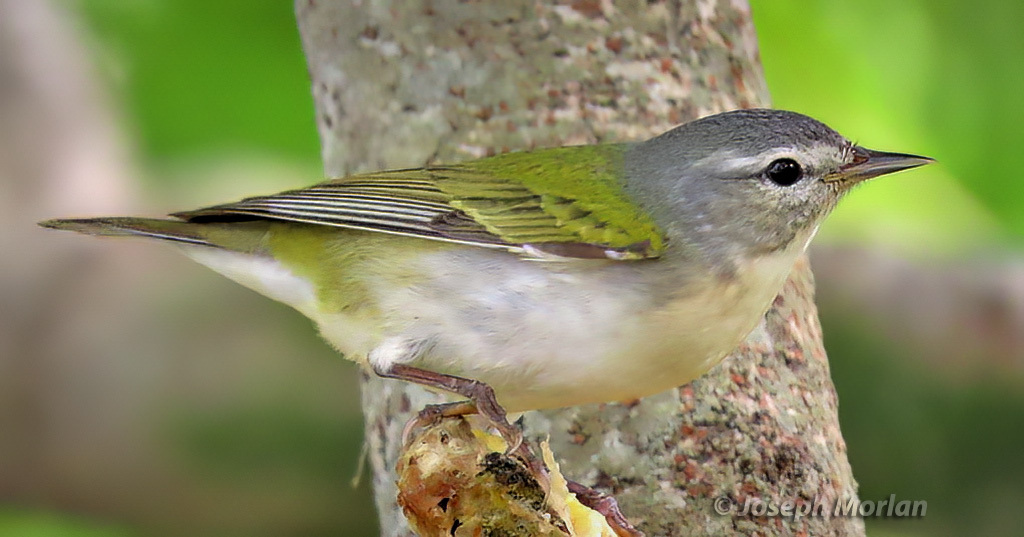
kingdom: Animalia
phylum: Chordata
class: Aves
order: Passeriformes
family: Parulidae
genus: Leiothlypis
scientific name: Leiothlypis peregrina
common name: Tennessee warbler
